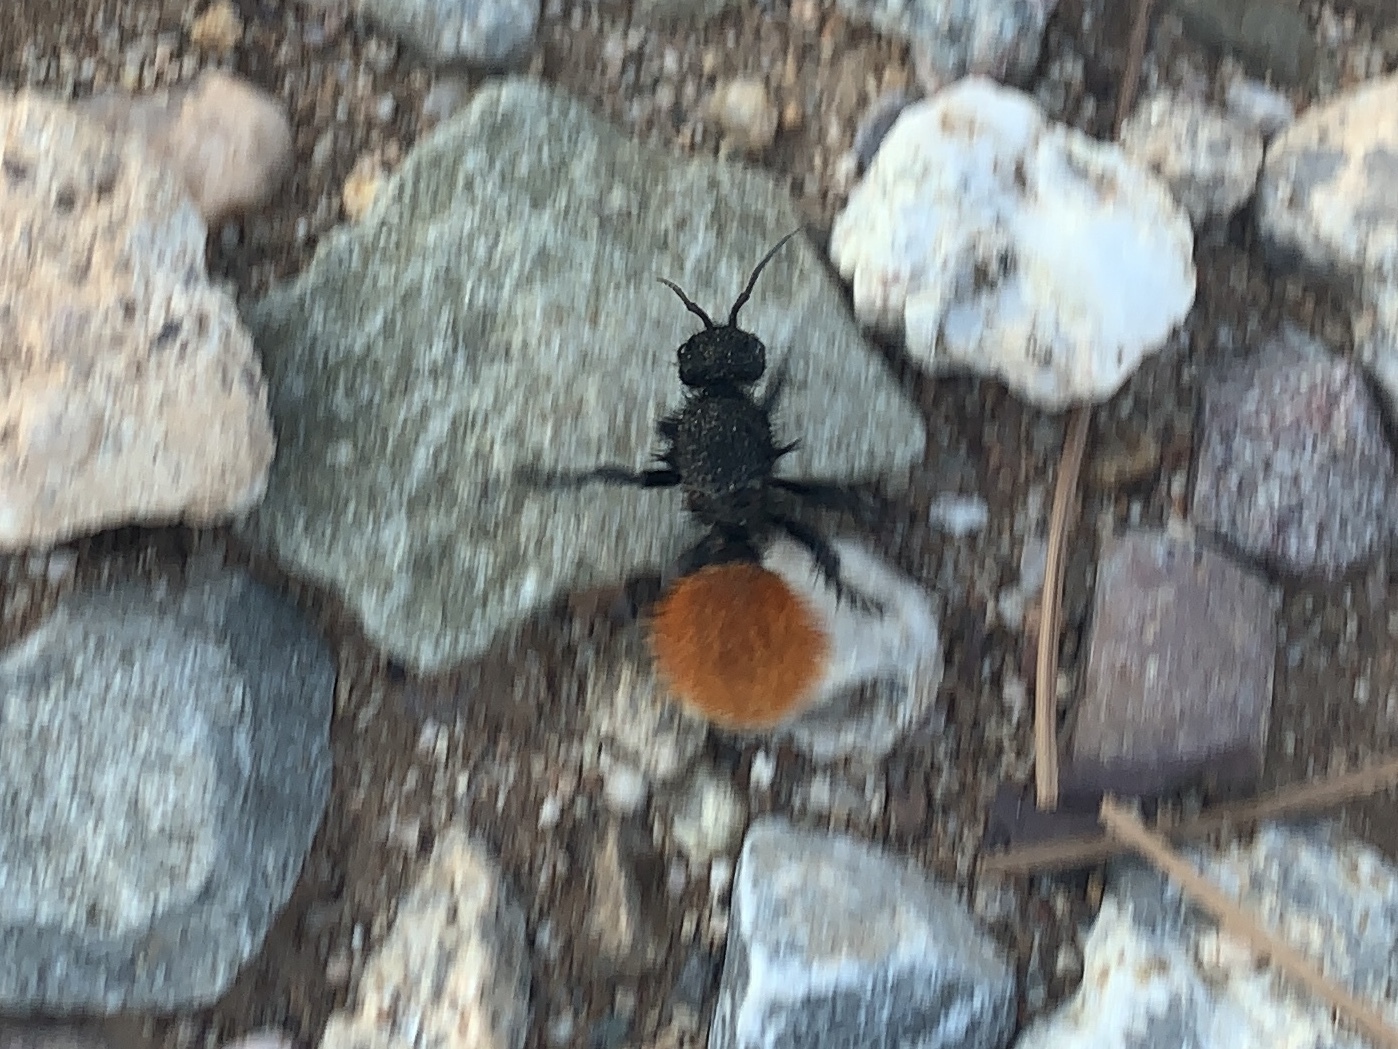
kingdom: Animalia
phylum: Arthropoda
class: Insecta
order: Hymenoptera
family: Mutillidae
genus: Dasymutilla
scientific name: Dasymutilla
